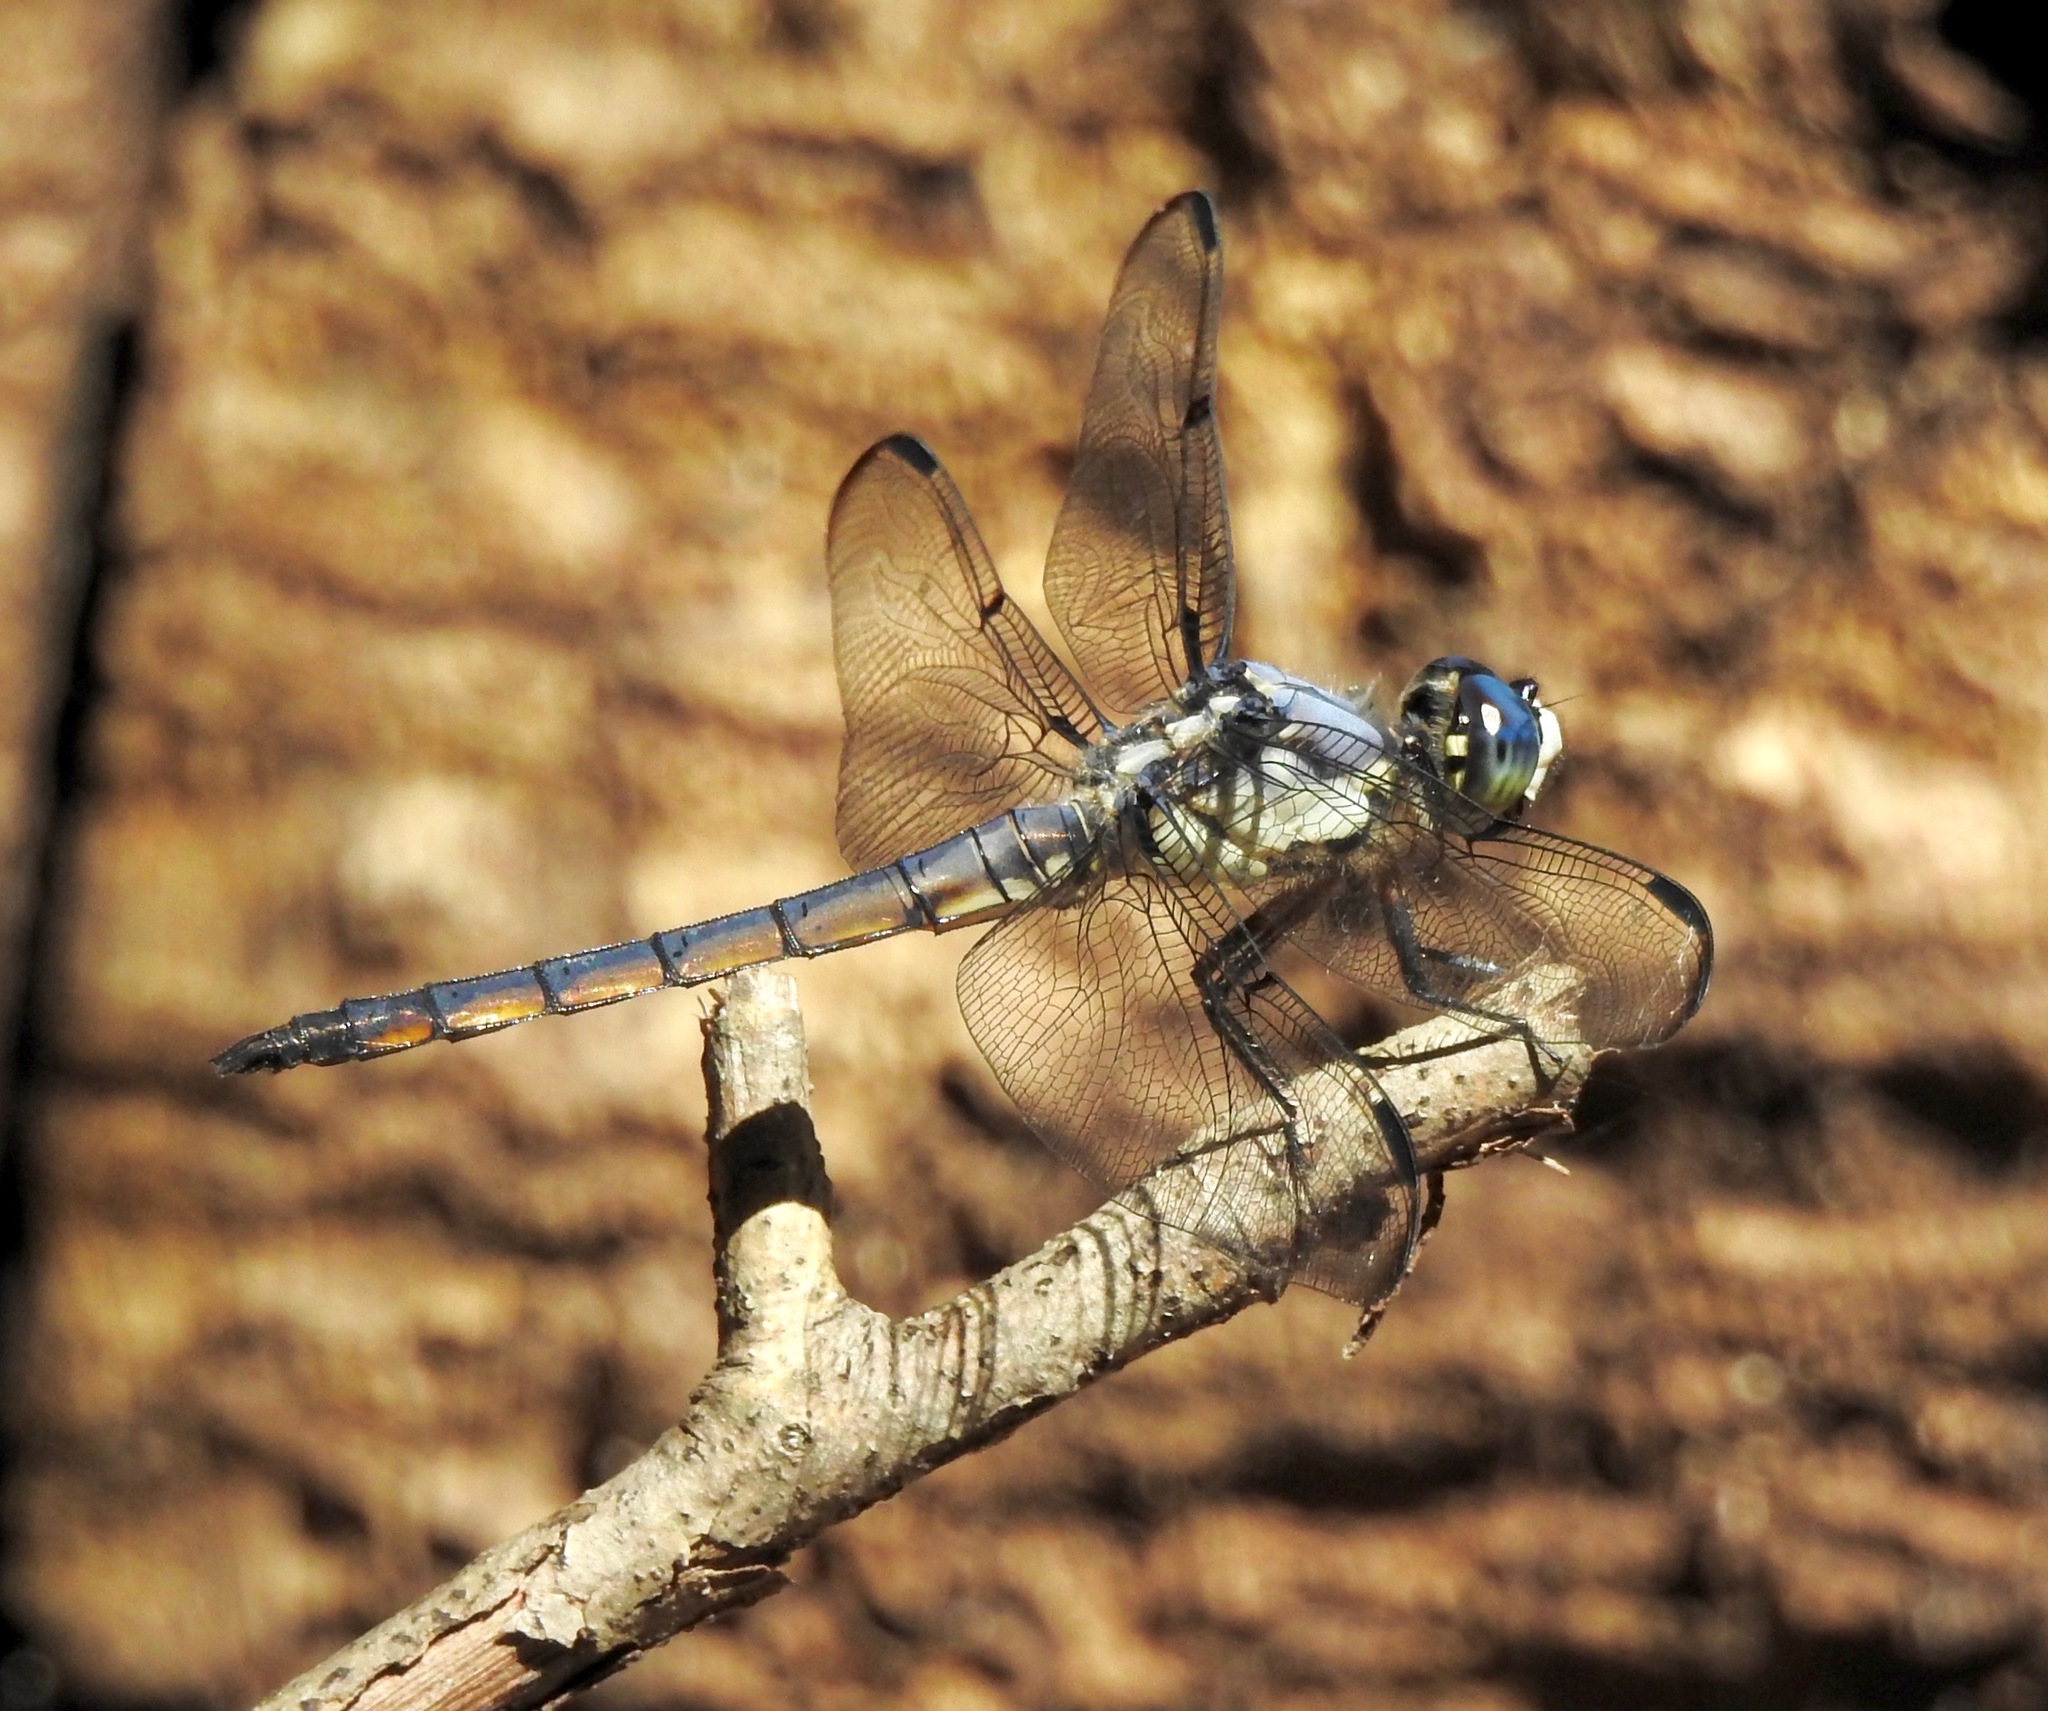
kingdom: Animalia
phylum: Arthropoda
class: Insecta
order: Odonata
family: Libellulidae
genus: Libellula
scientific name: Libellula vibrans
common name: Great blue skimmer
